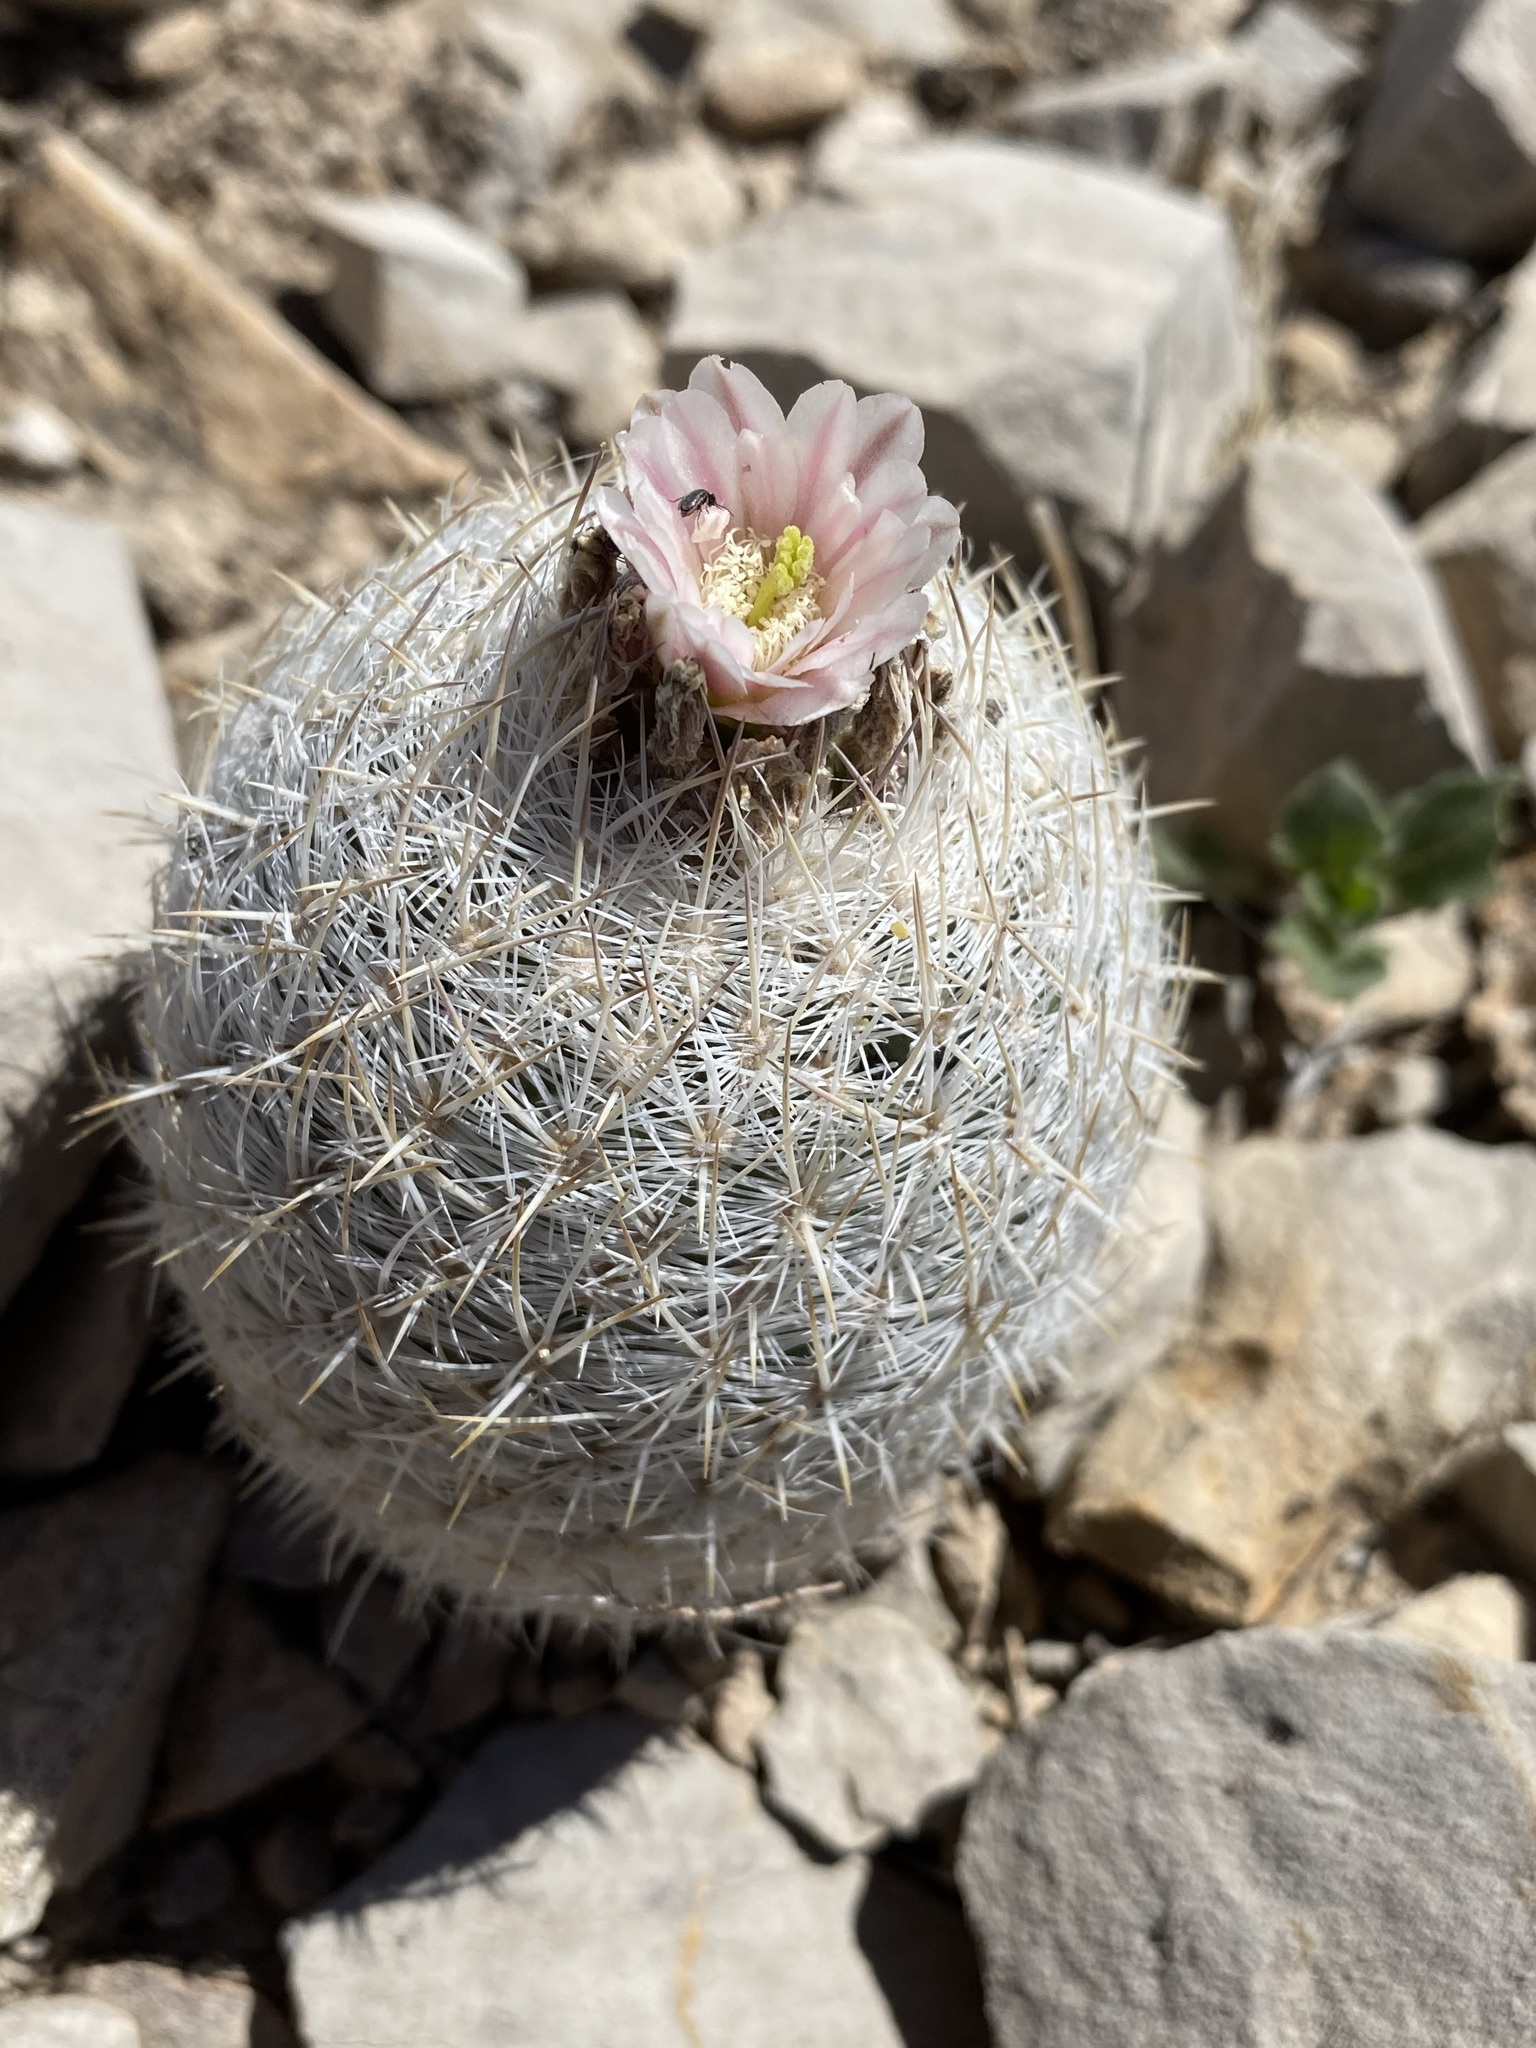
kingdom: Plantae
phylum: Tracheophyta
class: Magnoliopsida
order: Caryophyllales
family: Cactaceae
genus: Sclerocactus
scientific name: Sclerocactus mariposensis
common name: Golfball cactus
